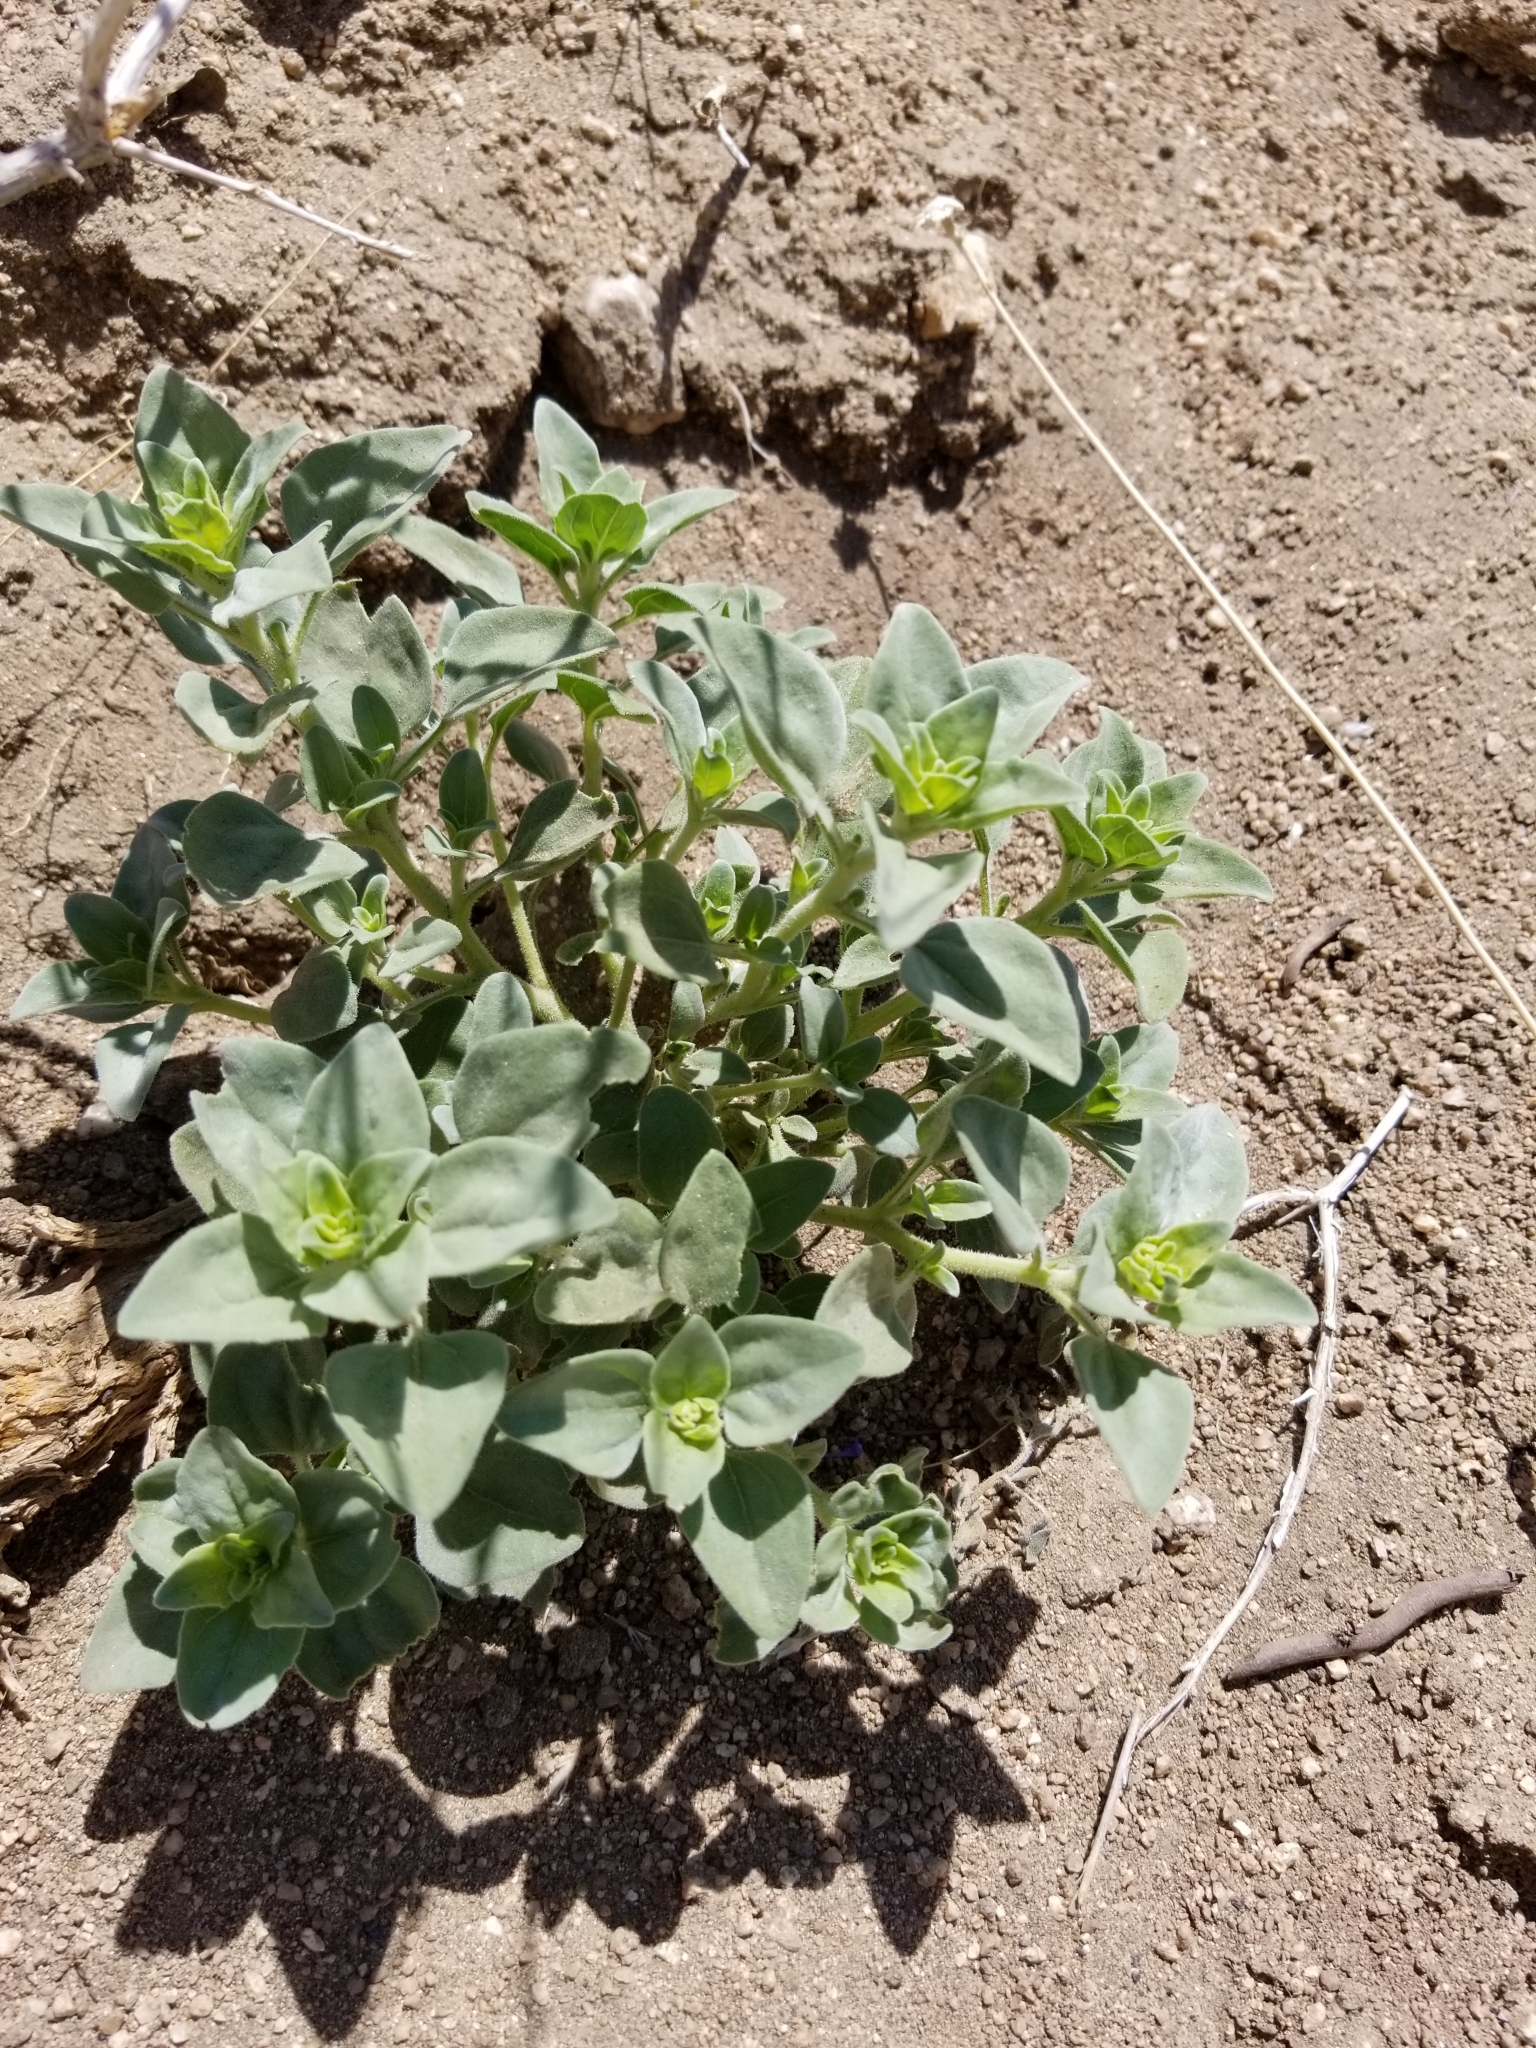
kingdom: Plantae
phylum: Tracheophyta
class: Magnoliopsida
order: Ericales
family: Primulaceae
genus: Lysimachia
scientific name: Lysimachia arvensis
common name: Scarlet pimpernel
